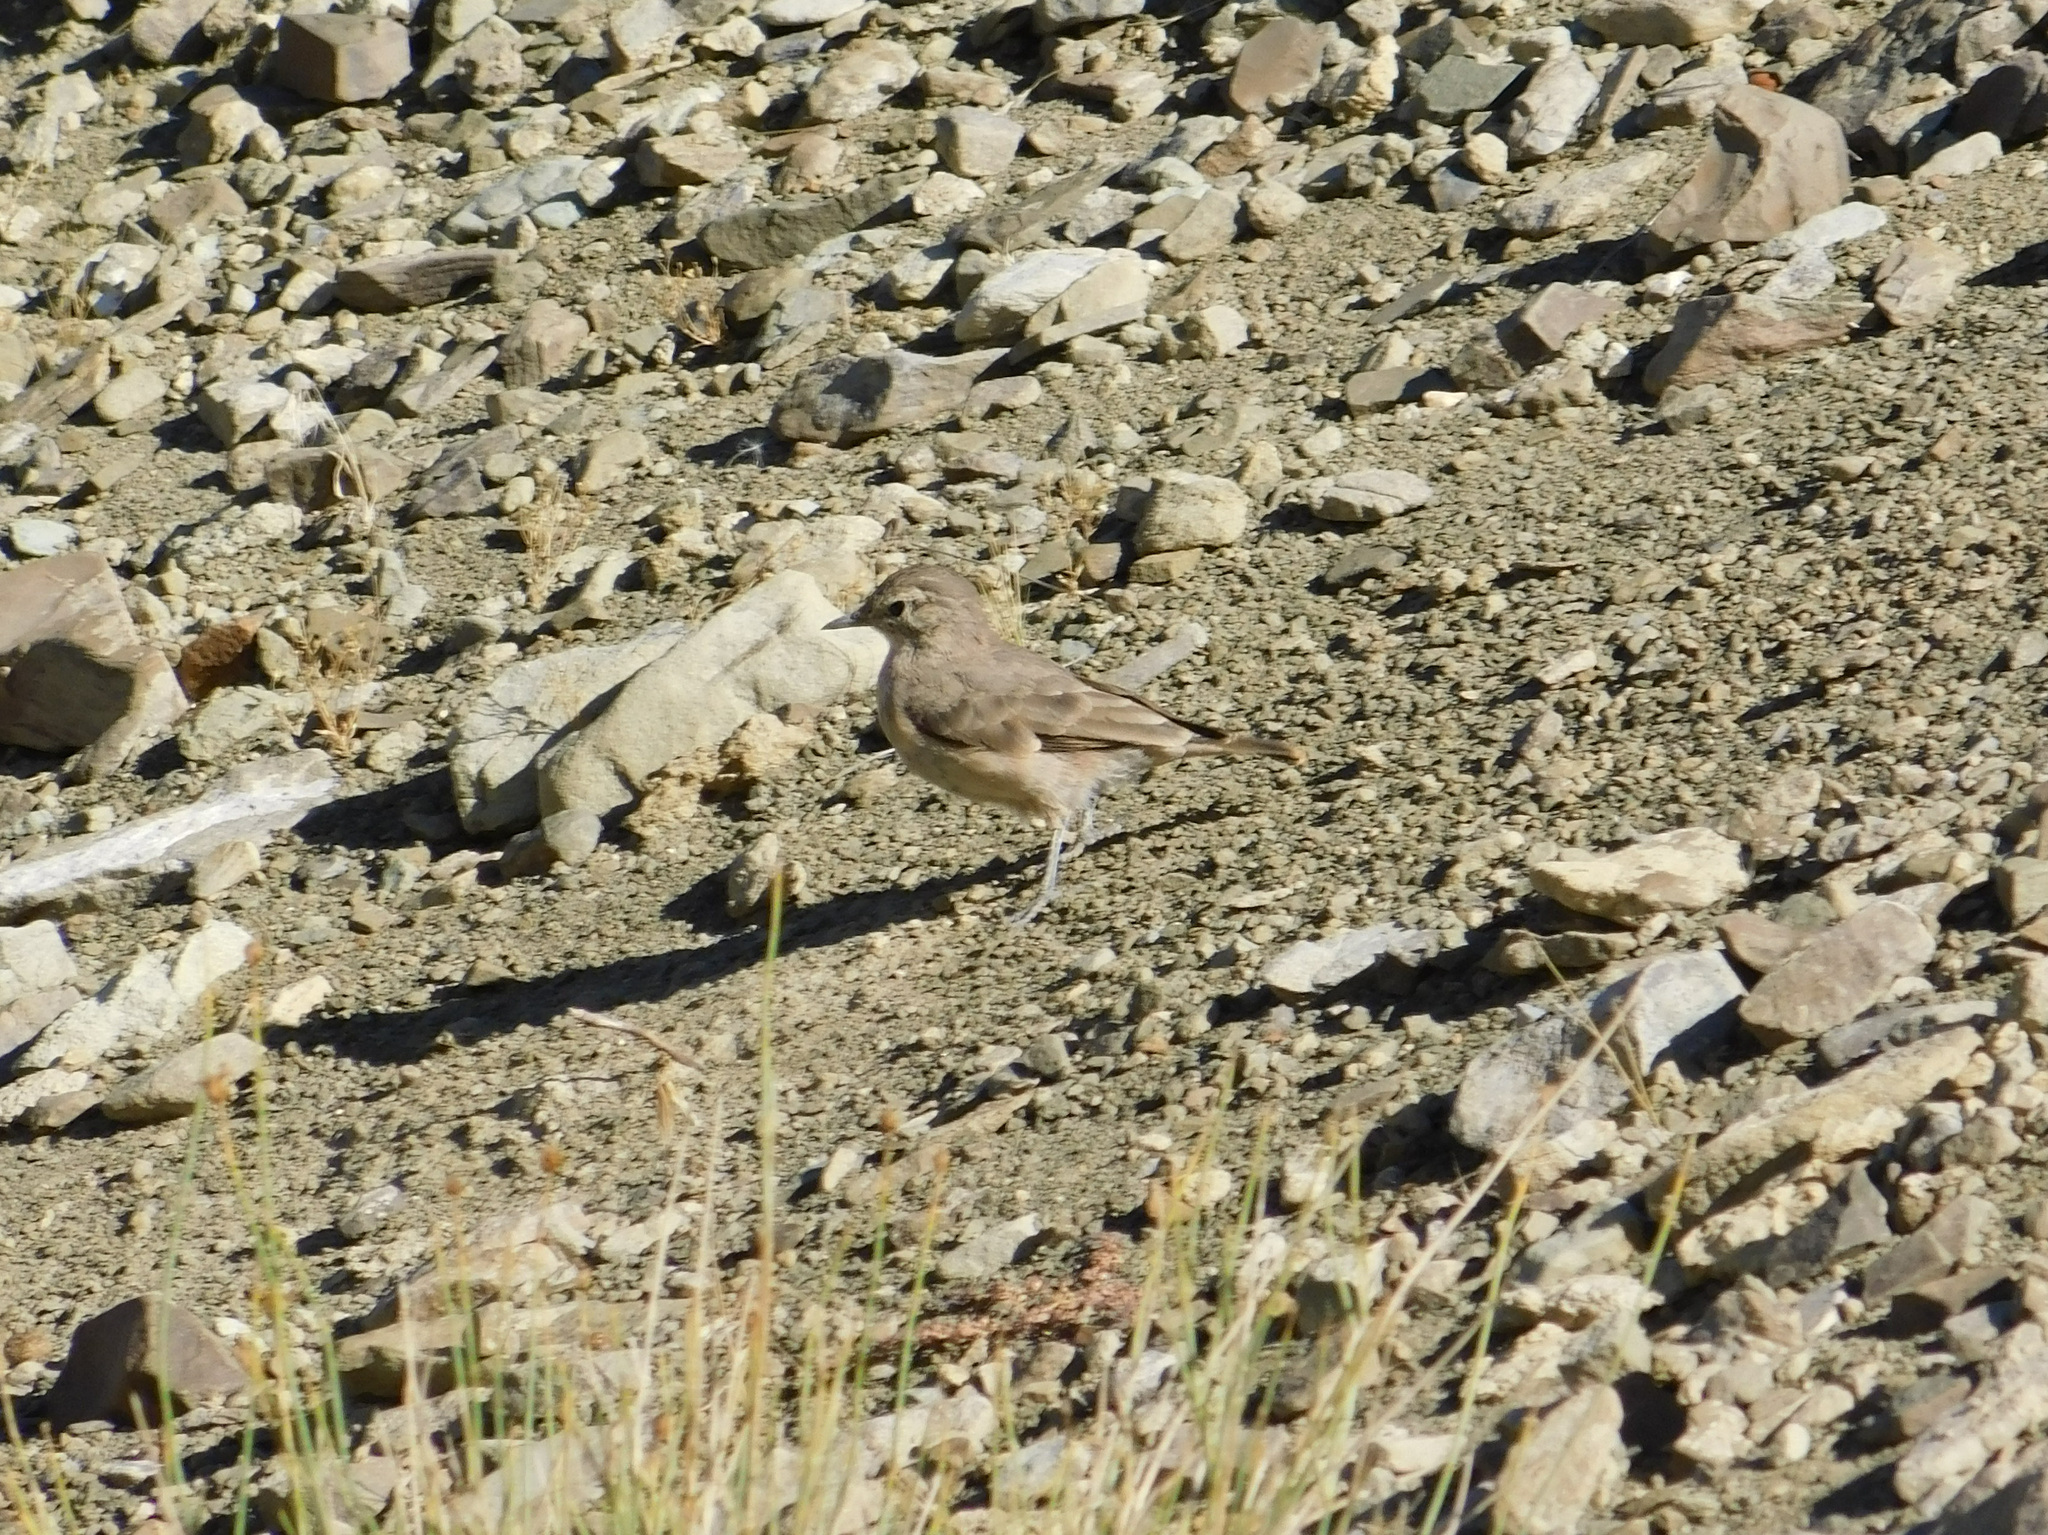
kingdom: Animalia
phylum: Chordata
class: Aves
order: Passeriformes
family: Furnariidae
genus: Geositta
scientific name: Geositta rufipennis
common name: Rufous-banded miner
